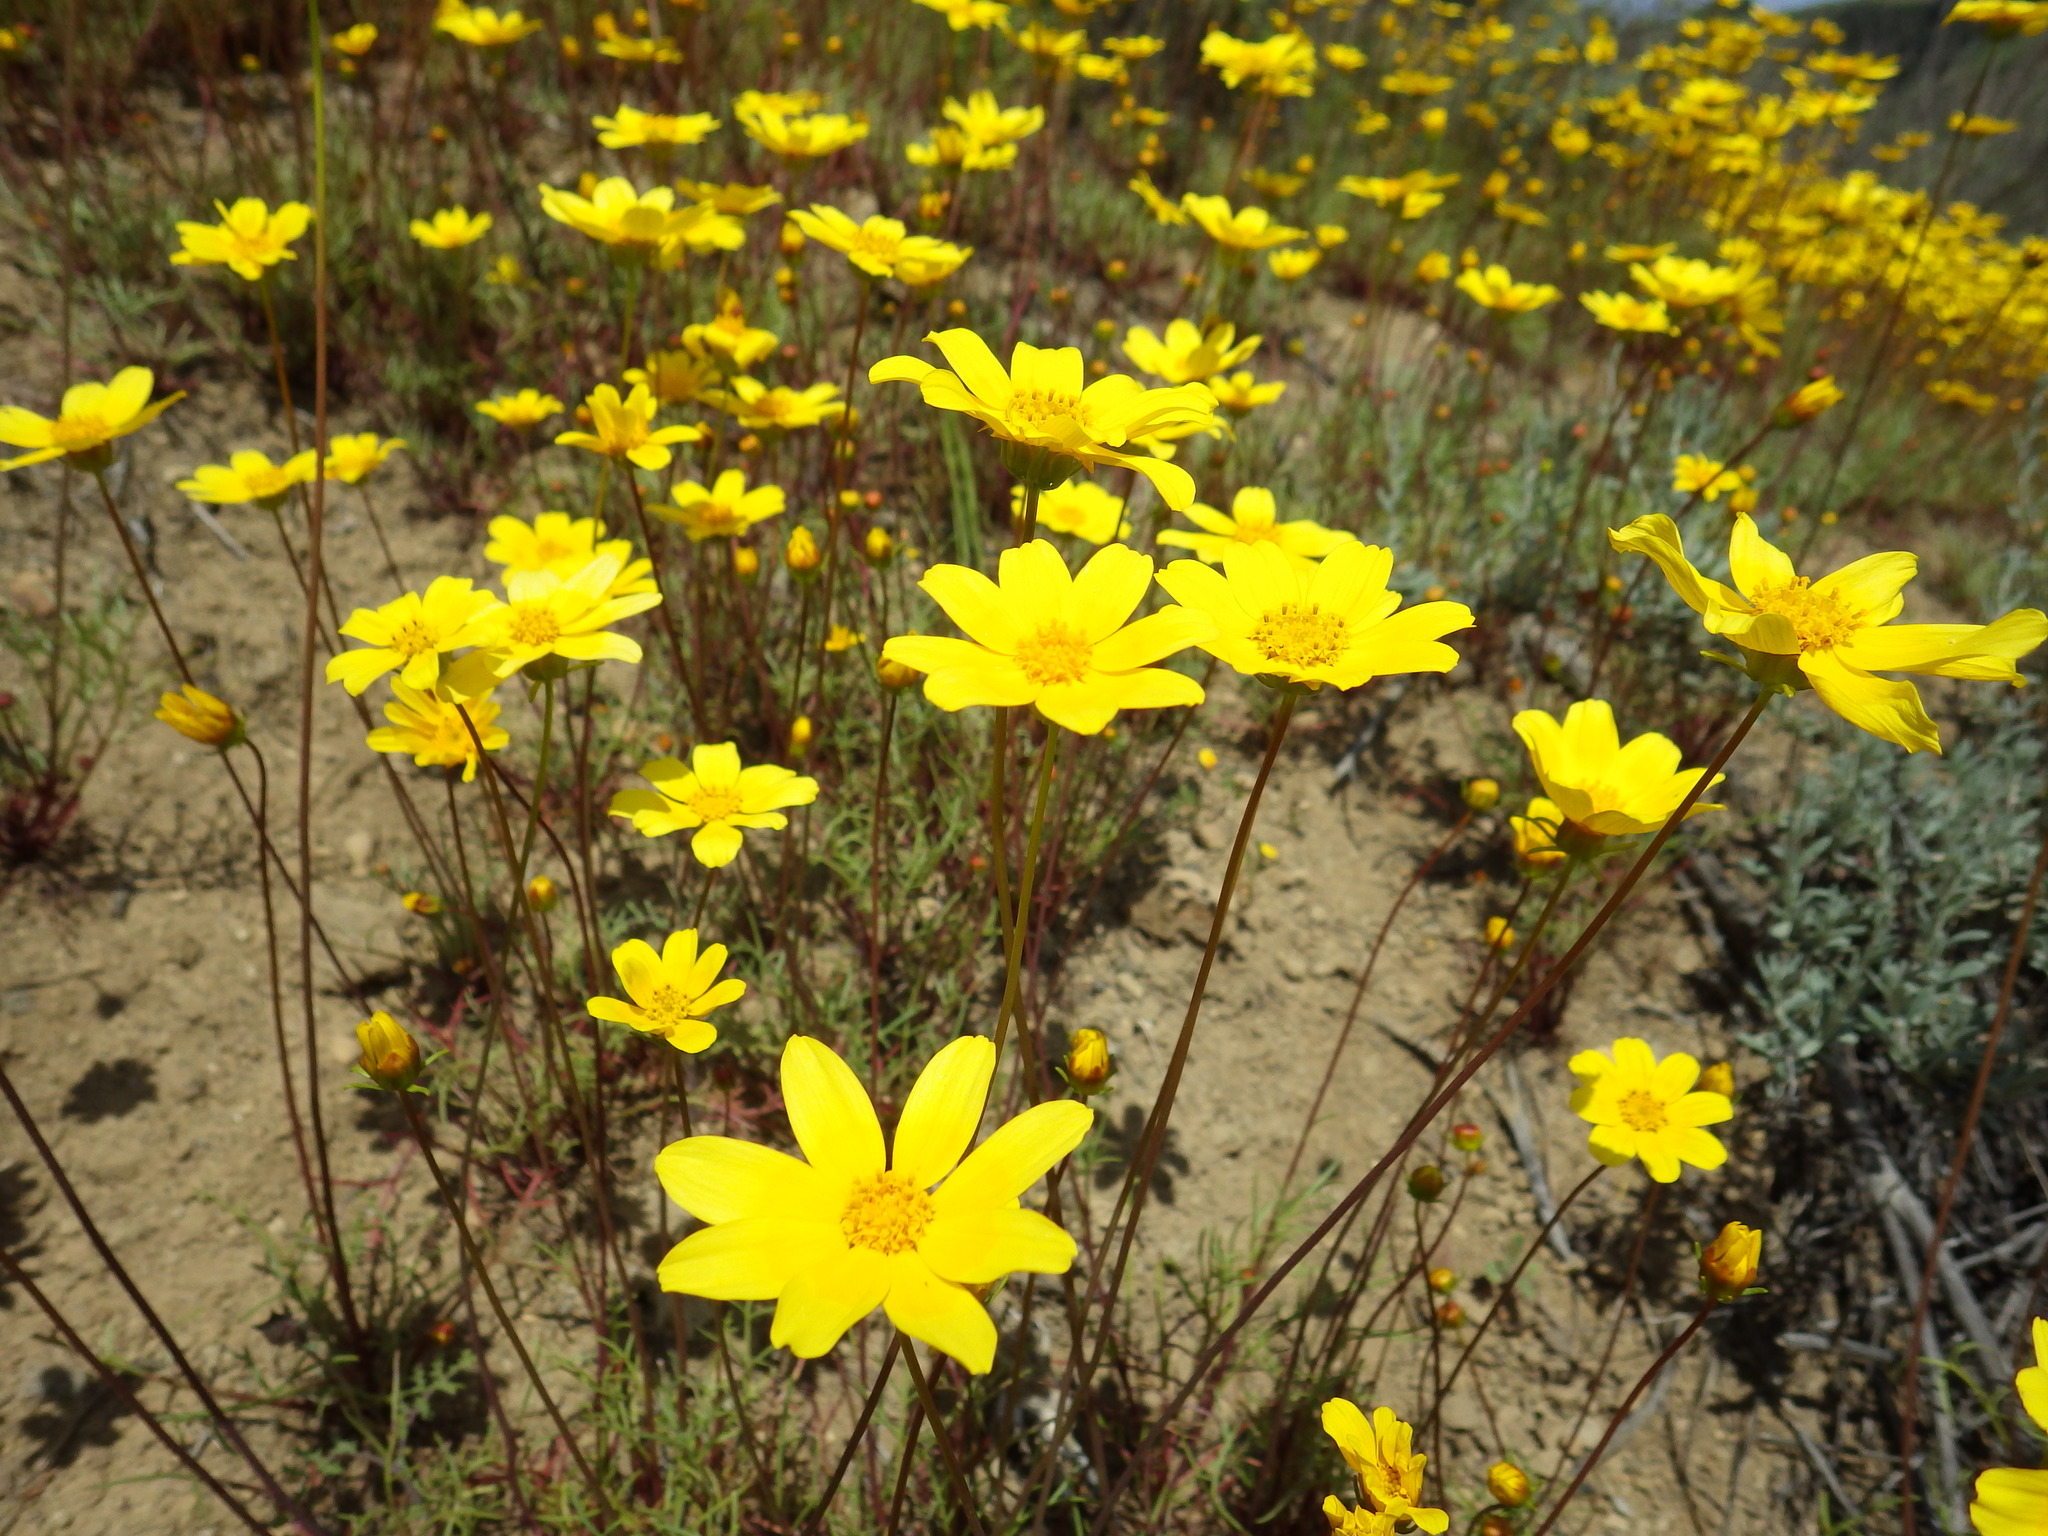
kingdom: Plantae
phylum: Tracheophyta
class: Magnoliopsida
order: Asterales
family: Asteraceae
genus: Coreopsis
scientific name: Coreopsis bigelovii
